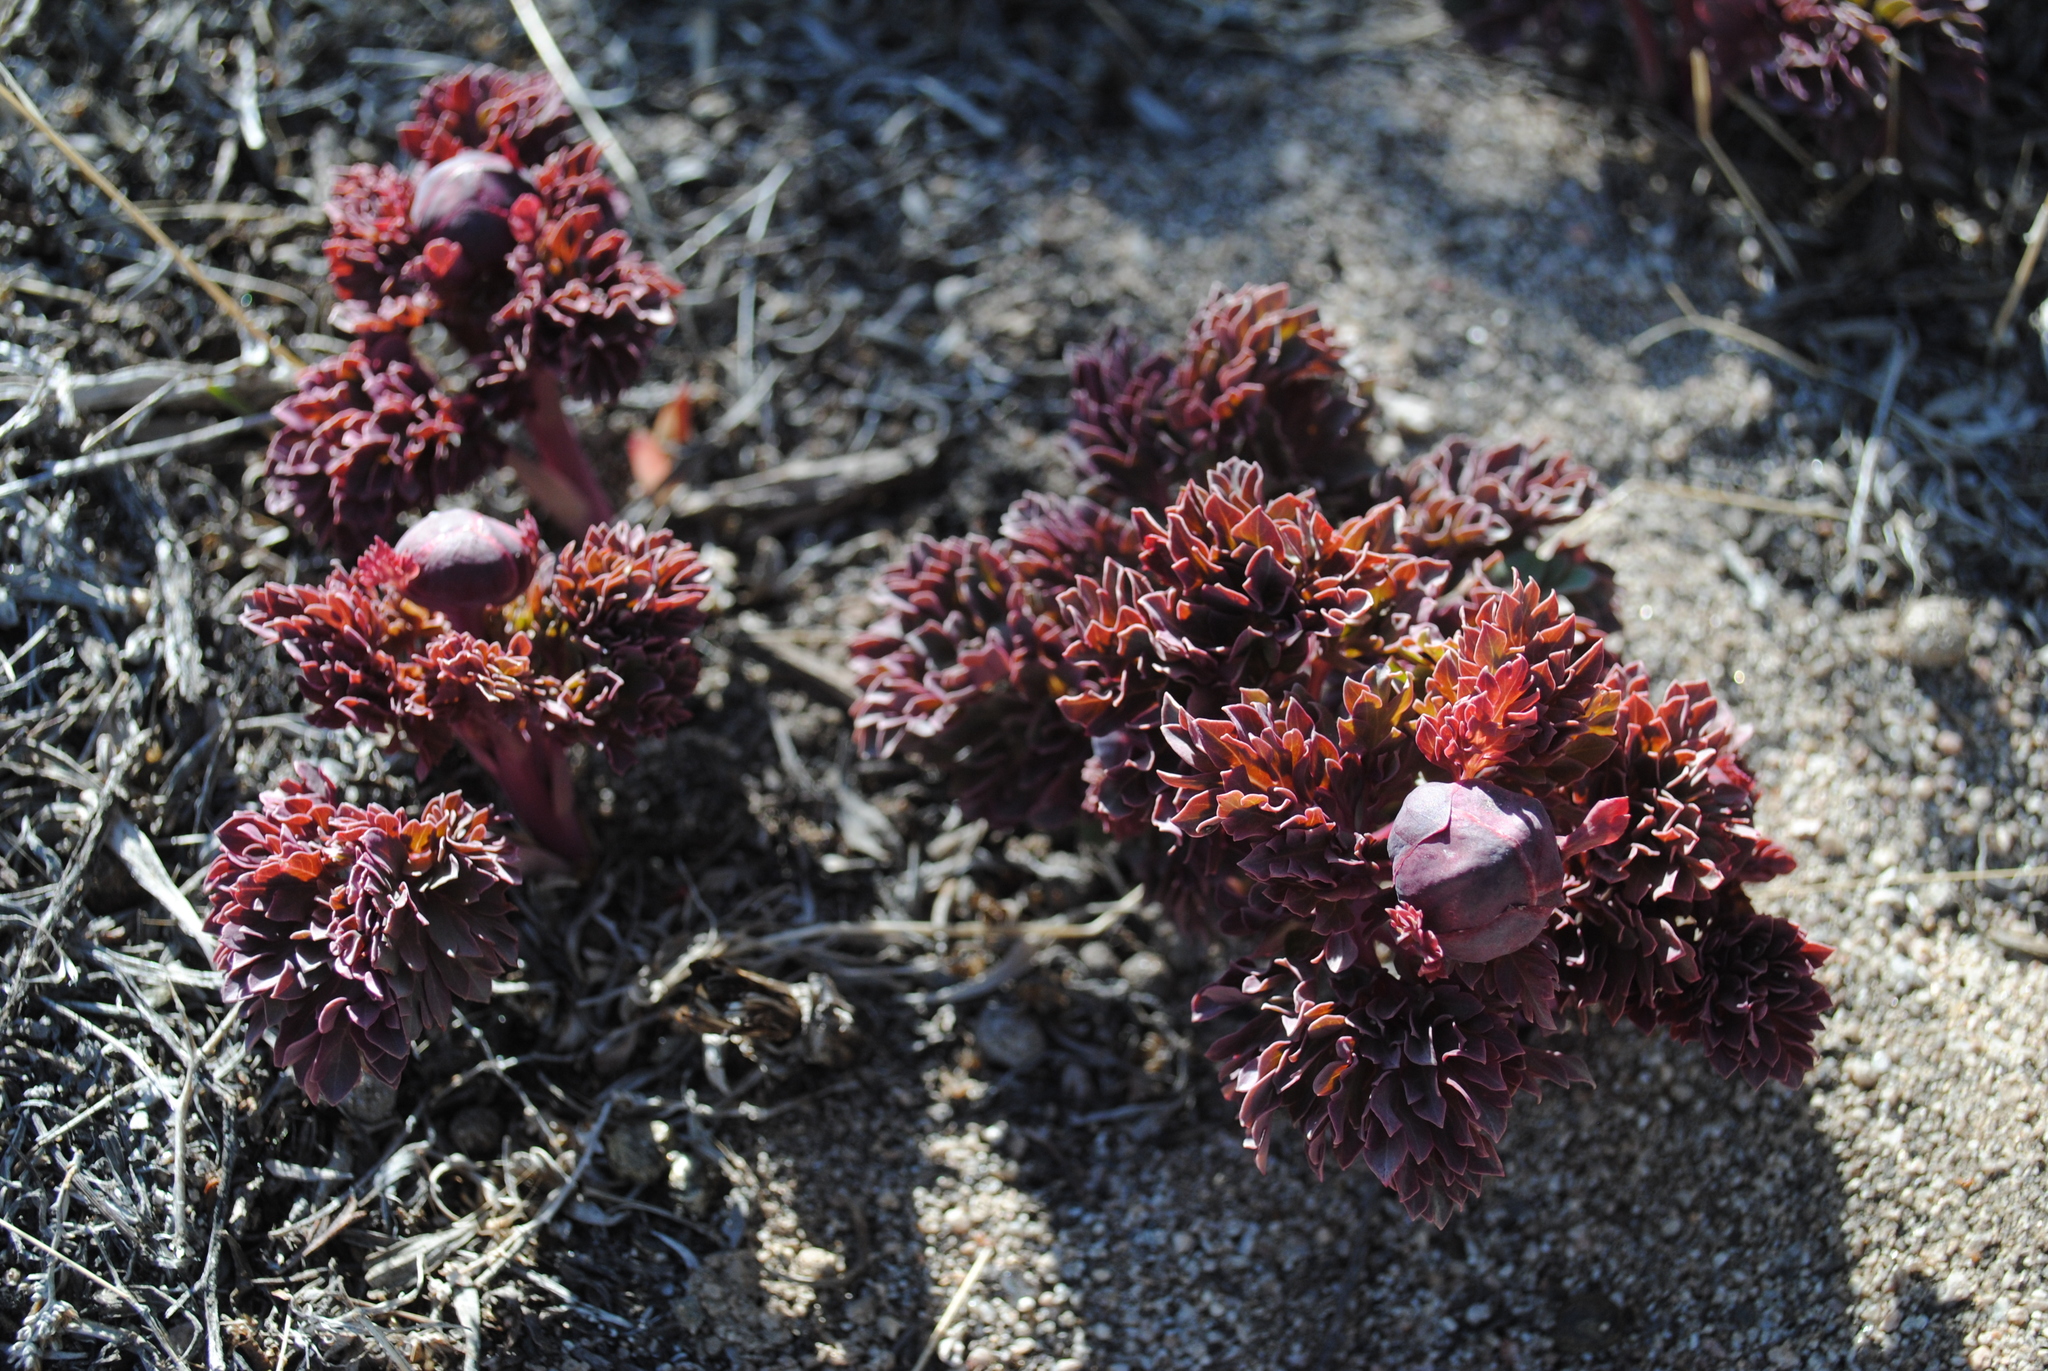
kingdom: Plantae
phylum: Tracheophyta
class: Magnoliopsida
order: Saxifragales
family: Paeoniaceae
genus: Paeonia
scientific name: Paeonia brownii
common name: Brown's peony
